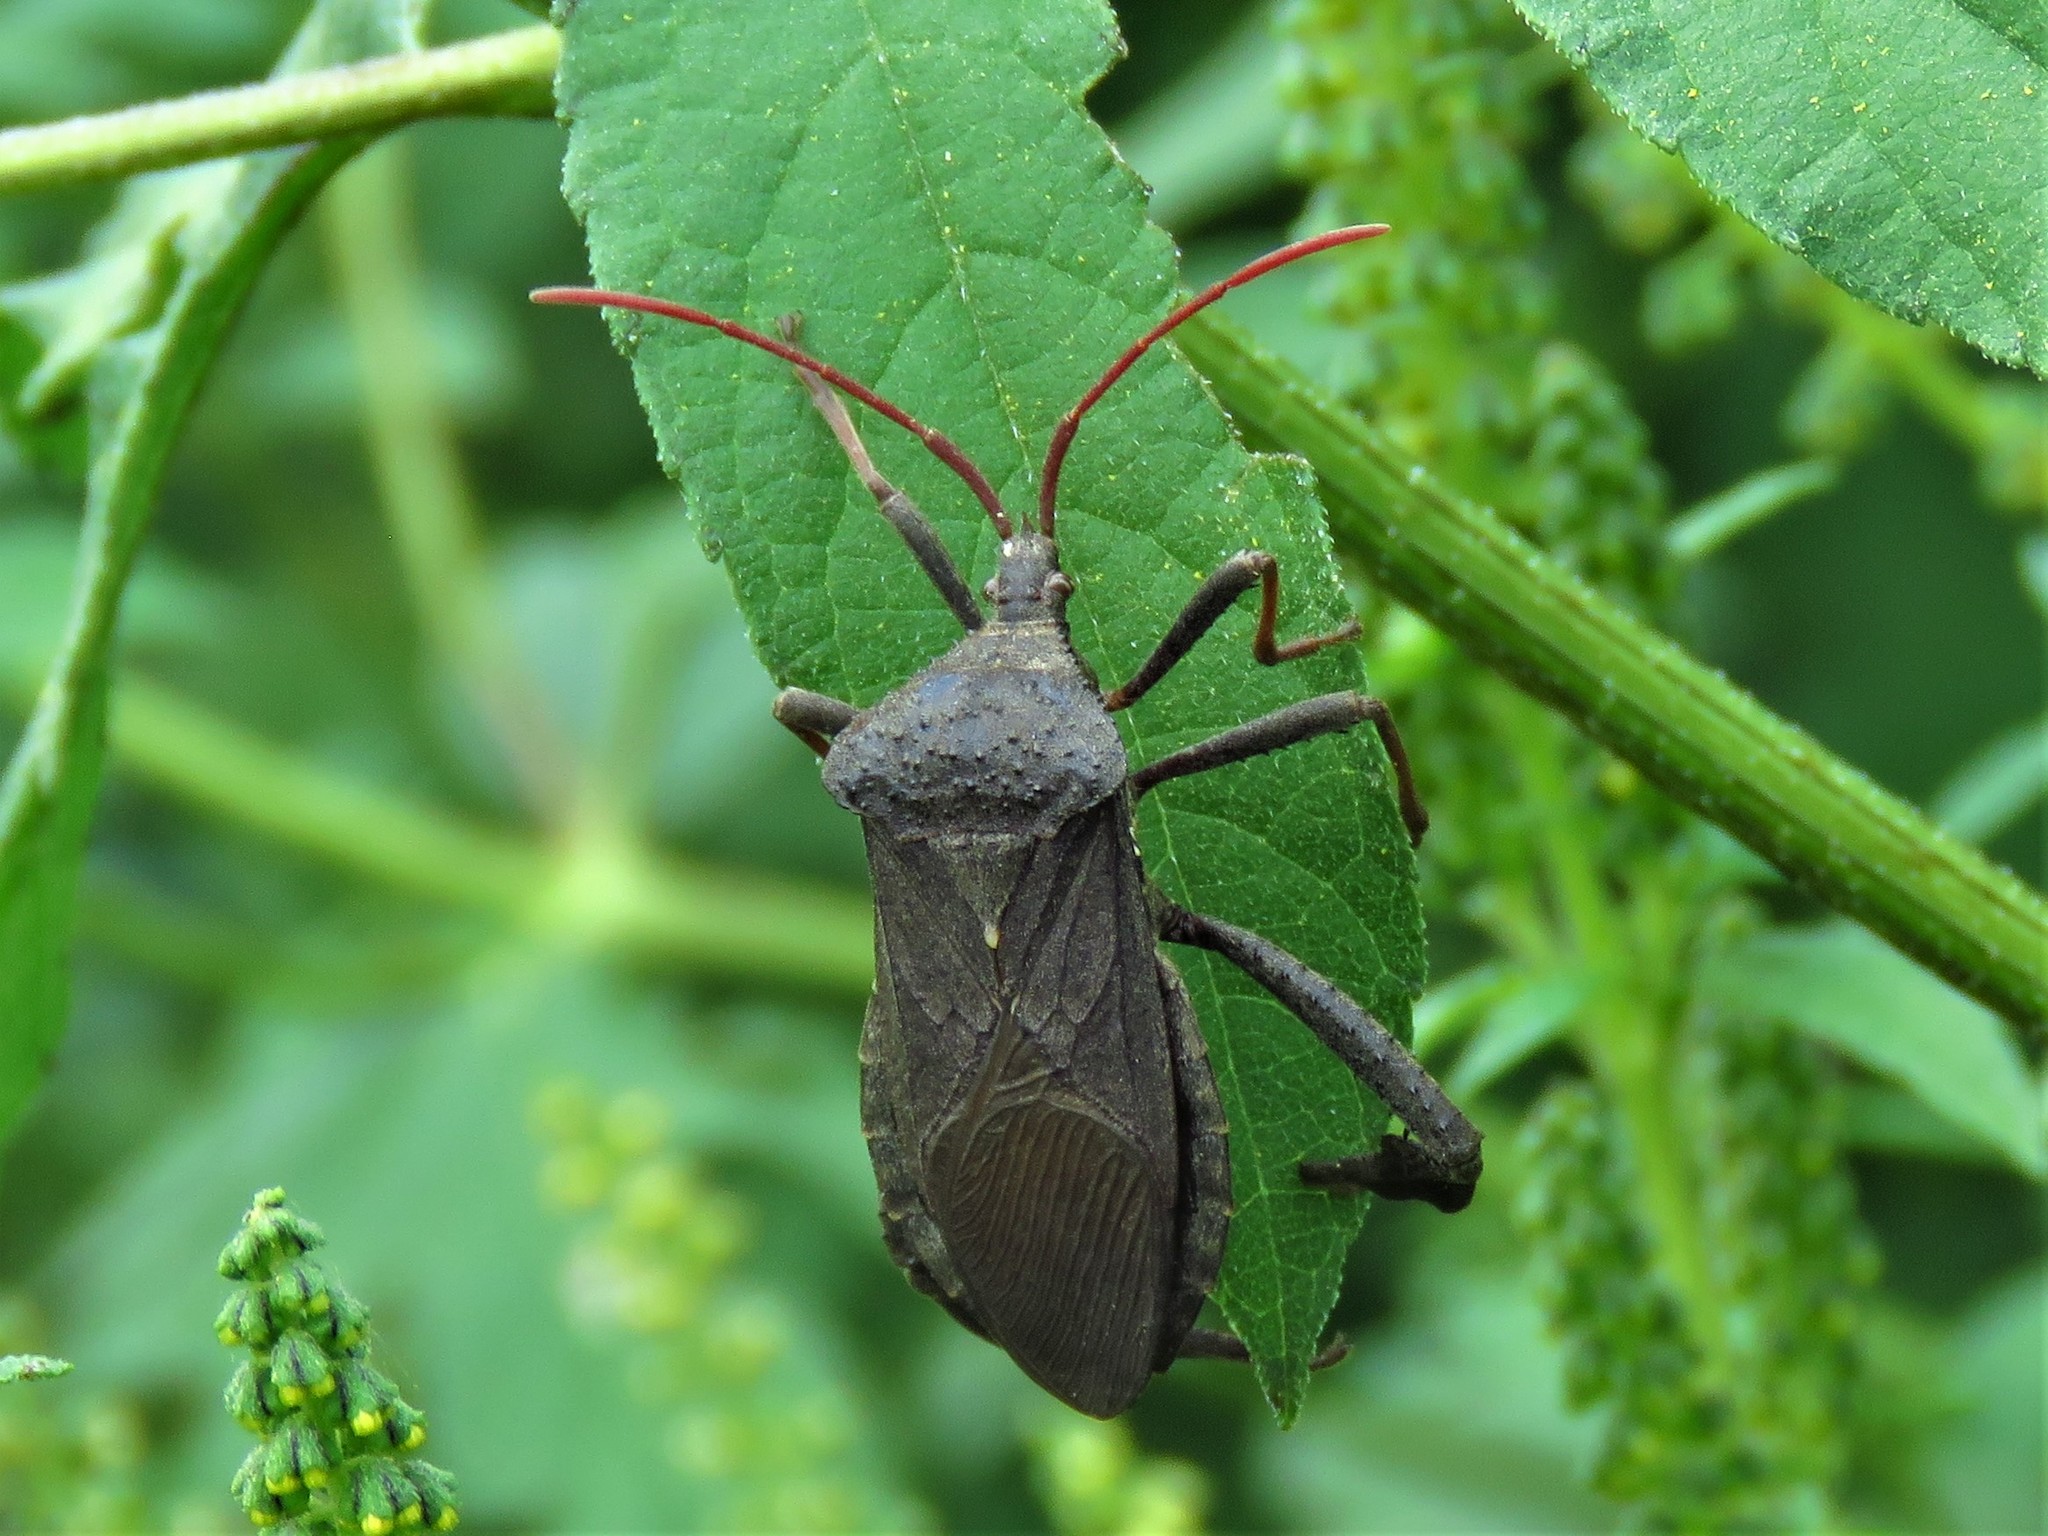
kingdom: Animalia
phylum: Arthropoda
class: Insecta
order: Hemiptera
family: Coreidae
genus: Acanthocephala
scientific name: Acanthocephala femorata
